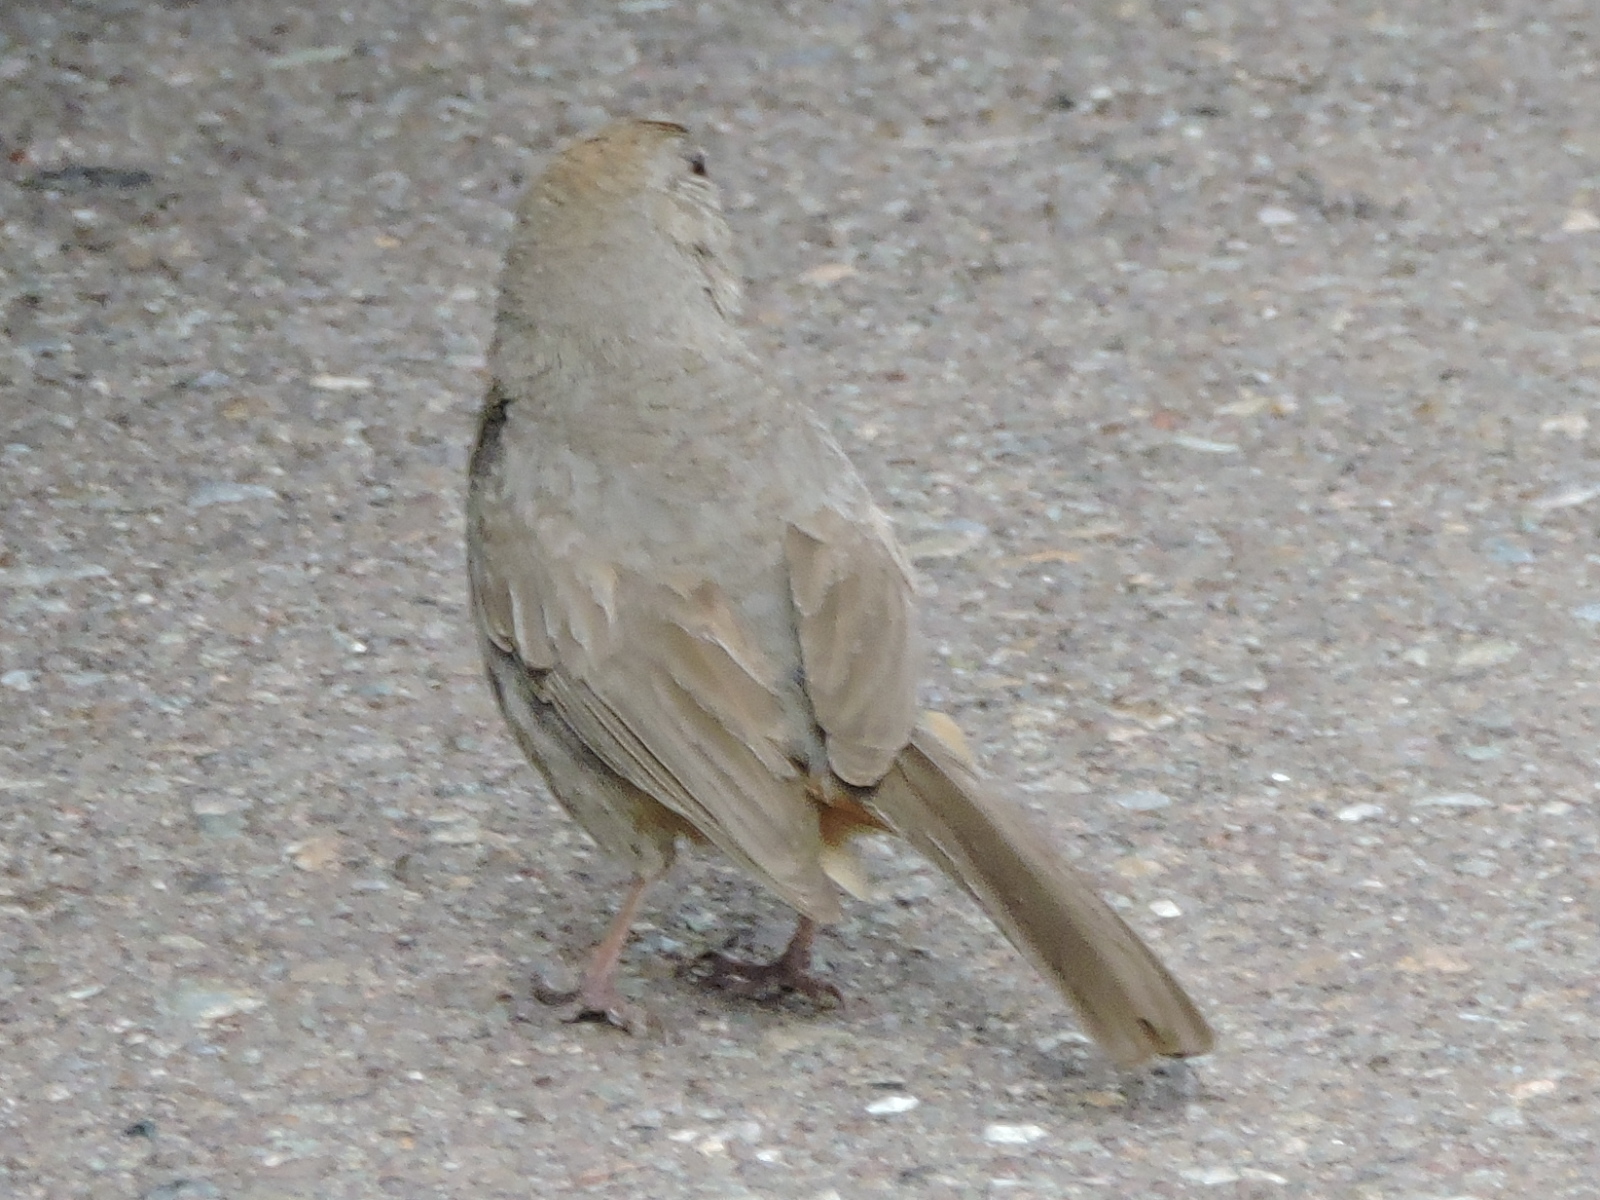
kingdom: Animalia
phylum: Chordata
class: Aves
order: Passeriformes
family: Passerellidae
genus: Melozone
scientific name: Melozone fusca
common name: Canyon towhee
